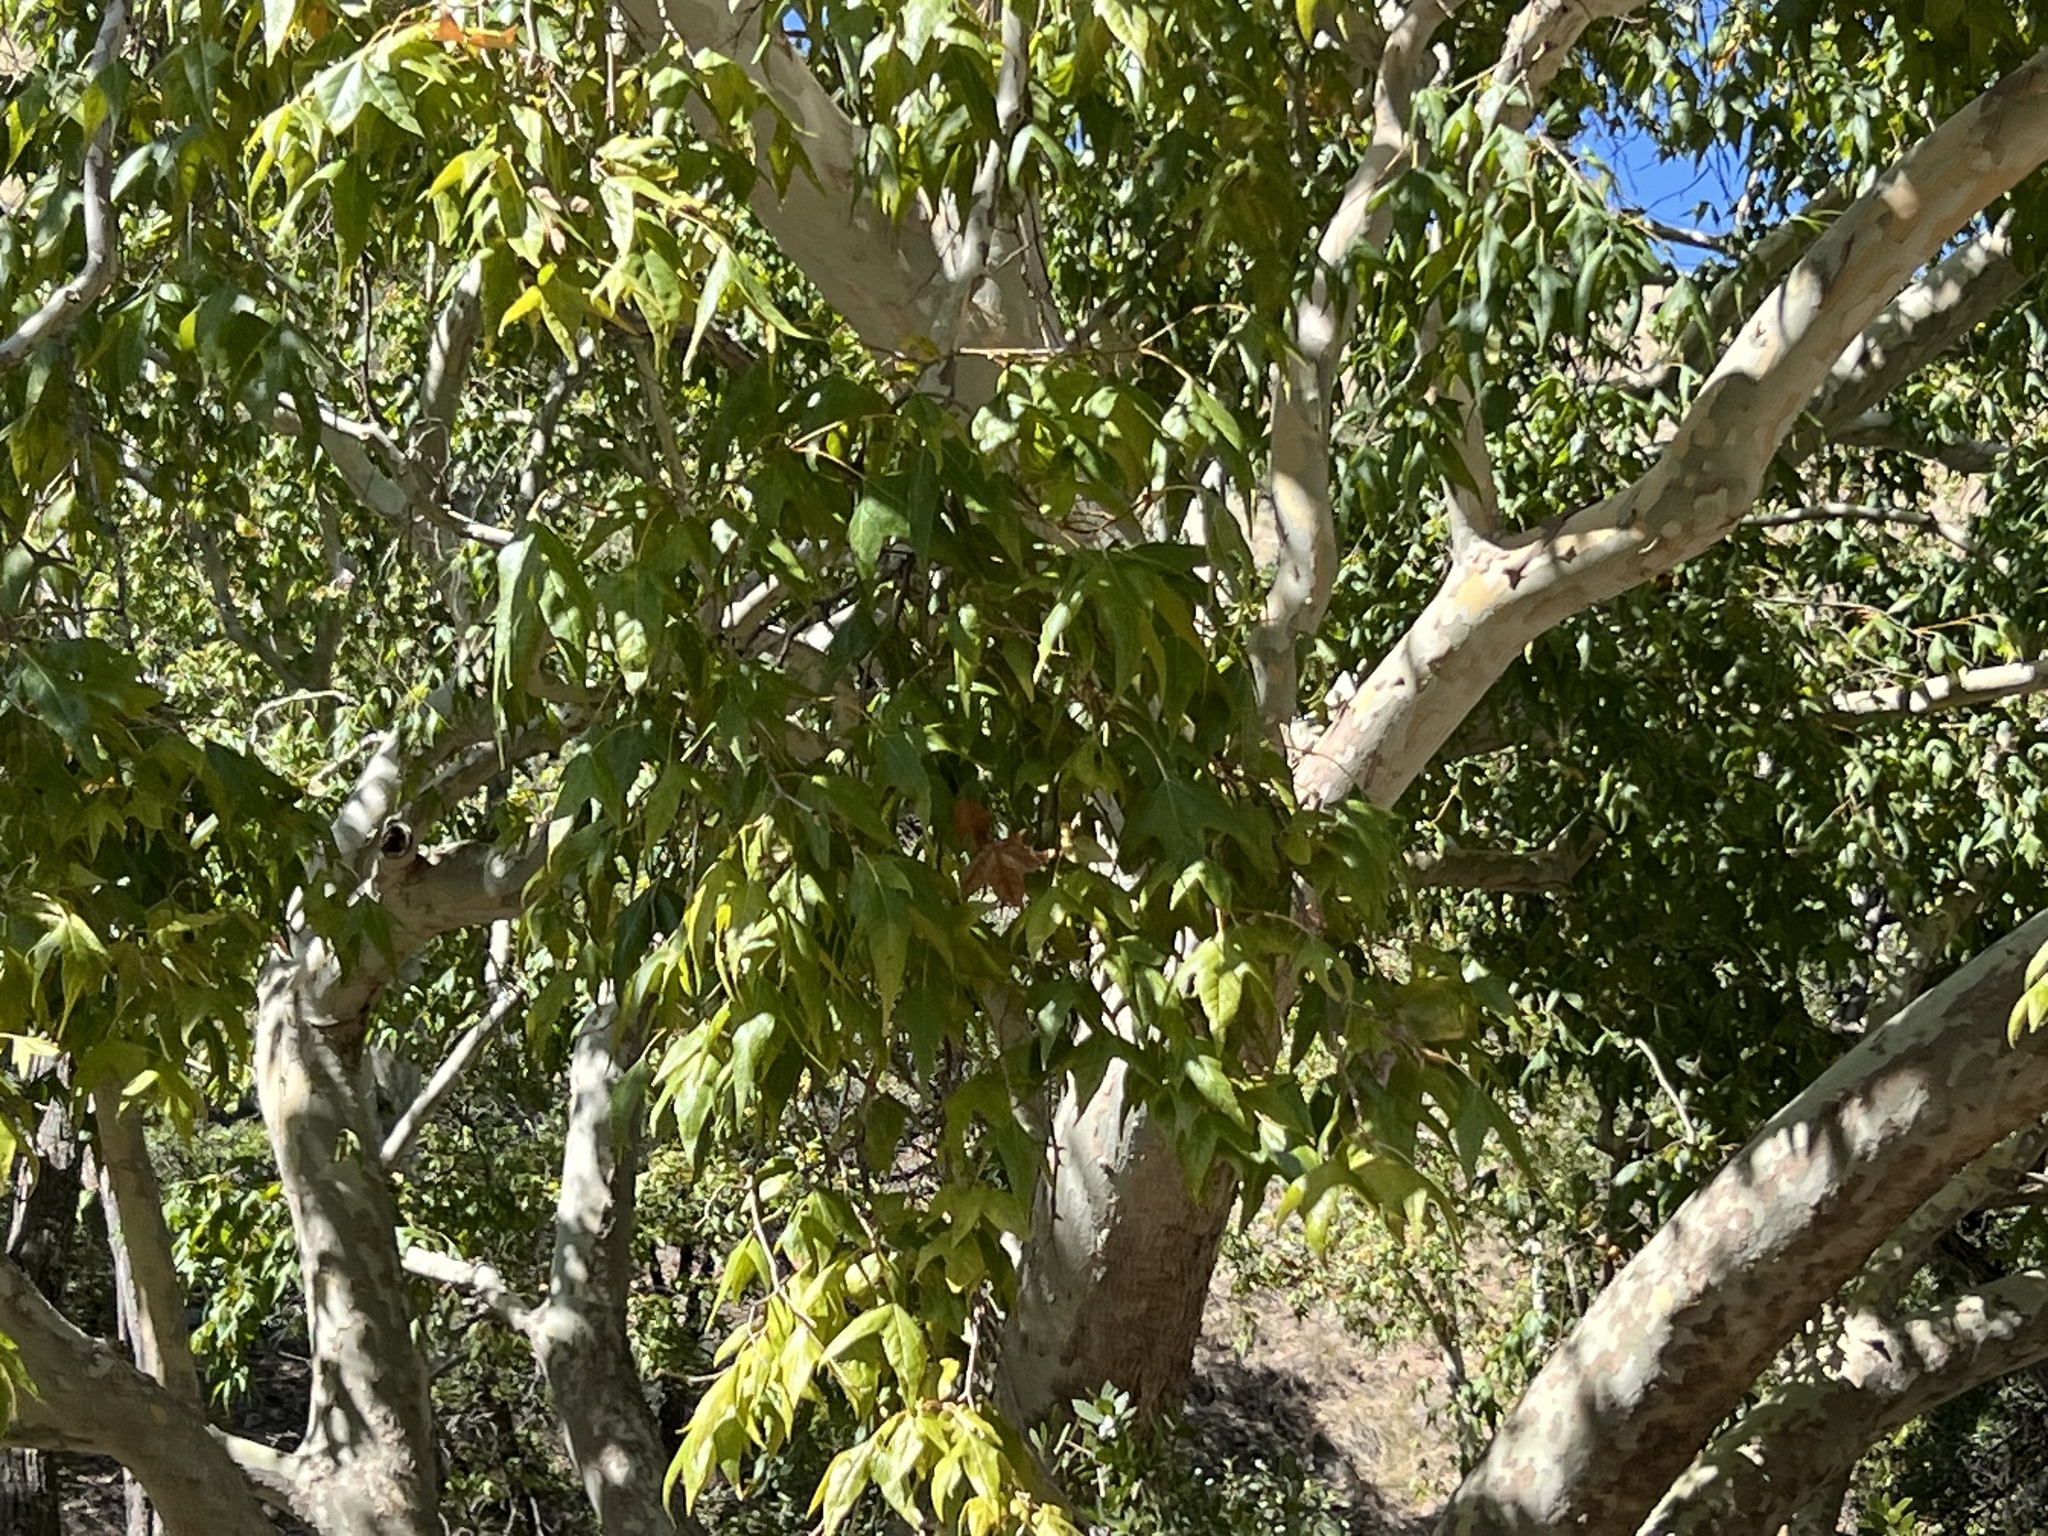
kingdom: Plantae
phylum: Tracheophyta
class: Magnoliopsida
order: Proteales
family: Platanaceae
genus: Platanus
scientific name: Platanus wrightii
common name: Arizona sycamore
